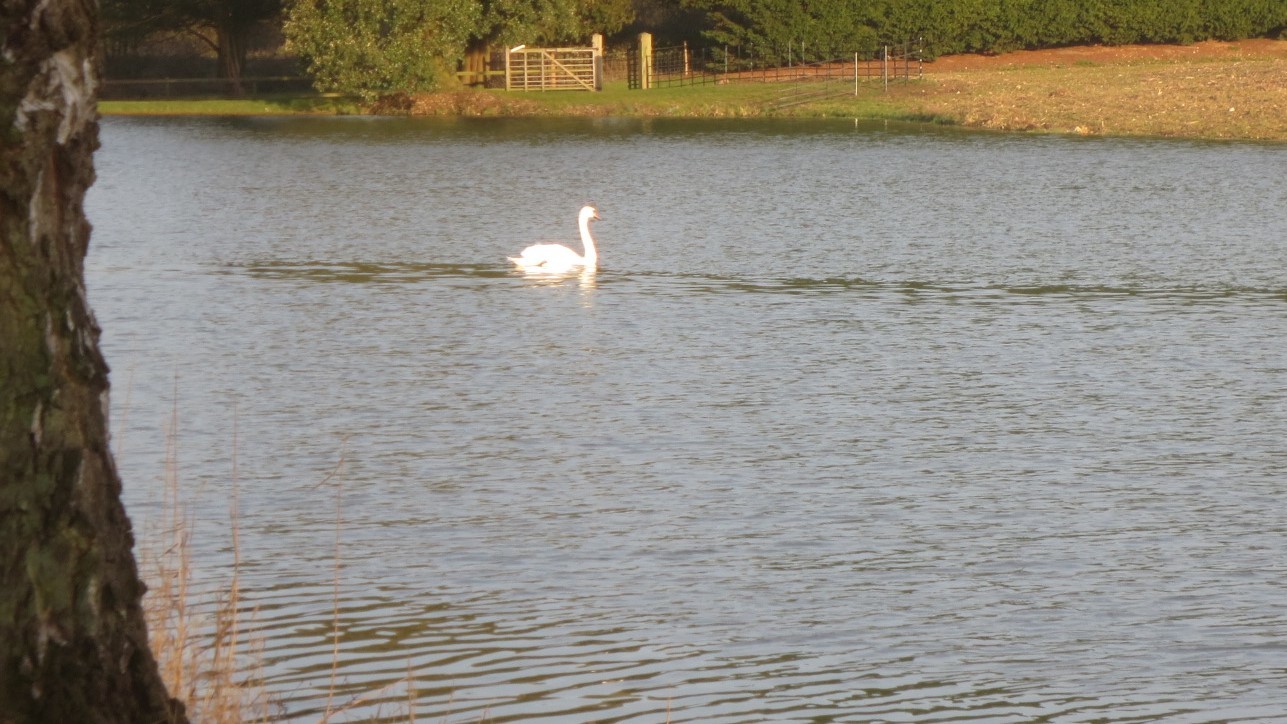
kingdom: Animalia
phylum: Chordata
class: Aves
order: Anseriformes
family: Anatidae
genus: Cygnus
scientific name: Cygnus olor
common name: Mute swan
